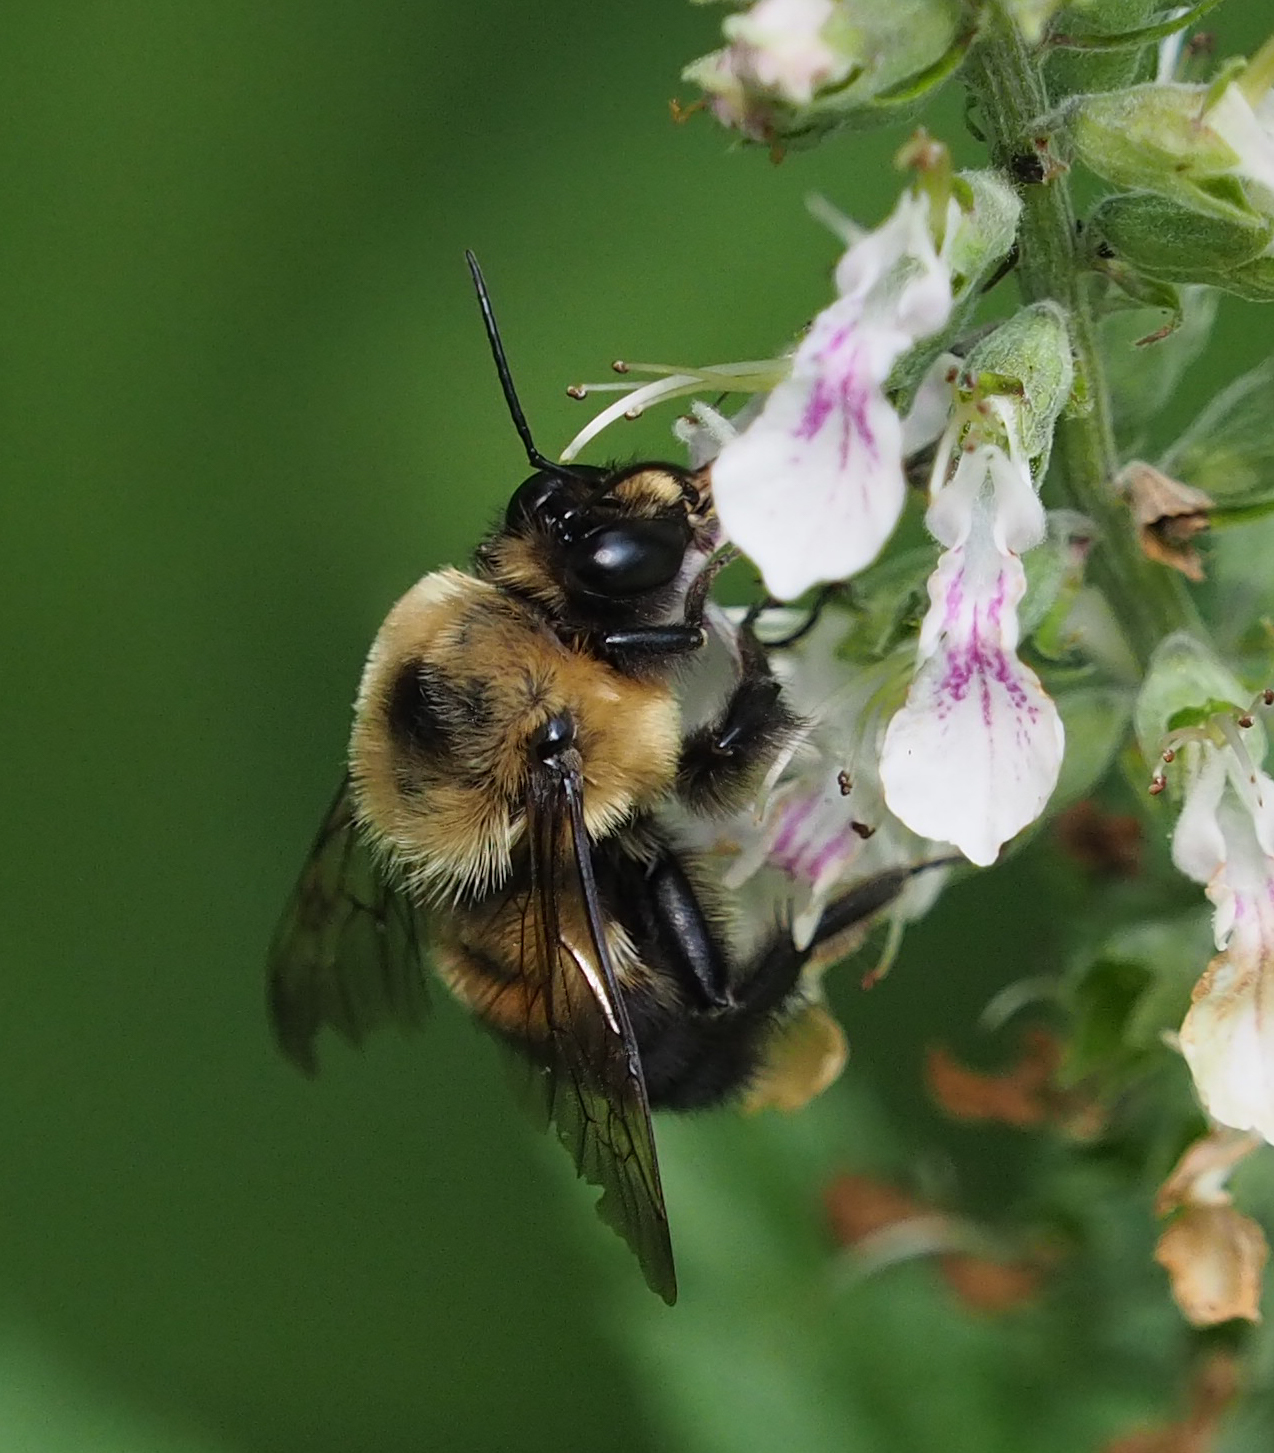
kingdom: Animalia
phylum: Arthropoda
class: Insecta
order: Hymenoptera
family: Apidae
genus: Bombus
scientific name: Bombus griseocollis
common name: Brown-belted bumble bee
